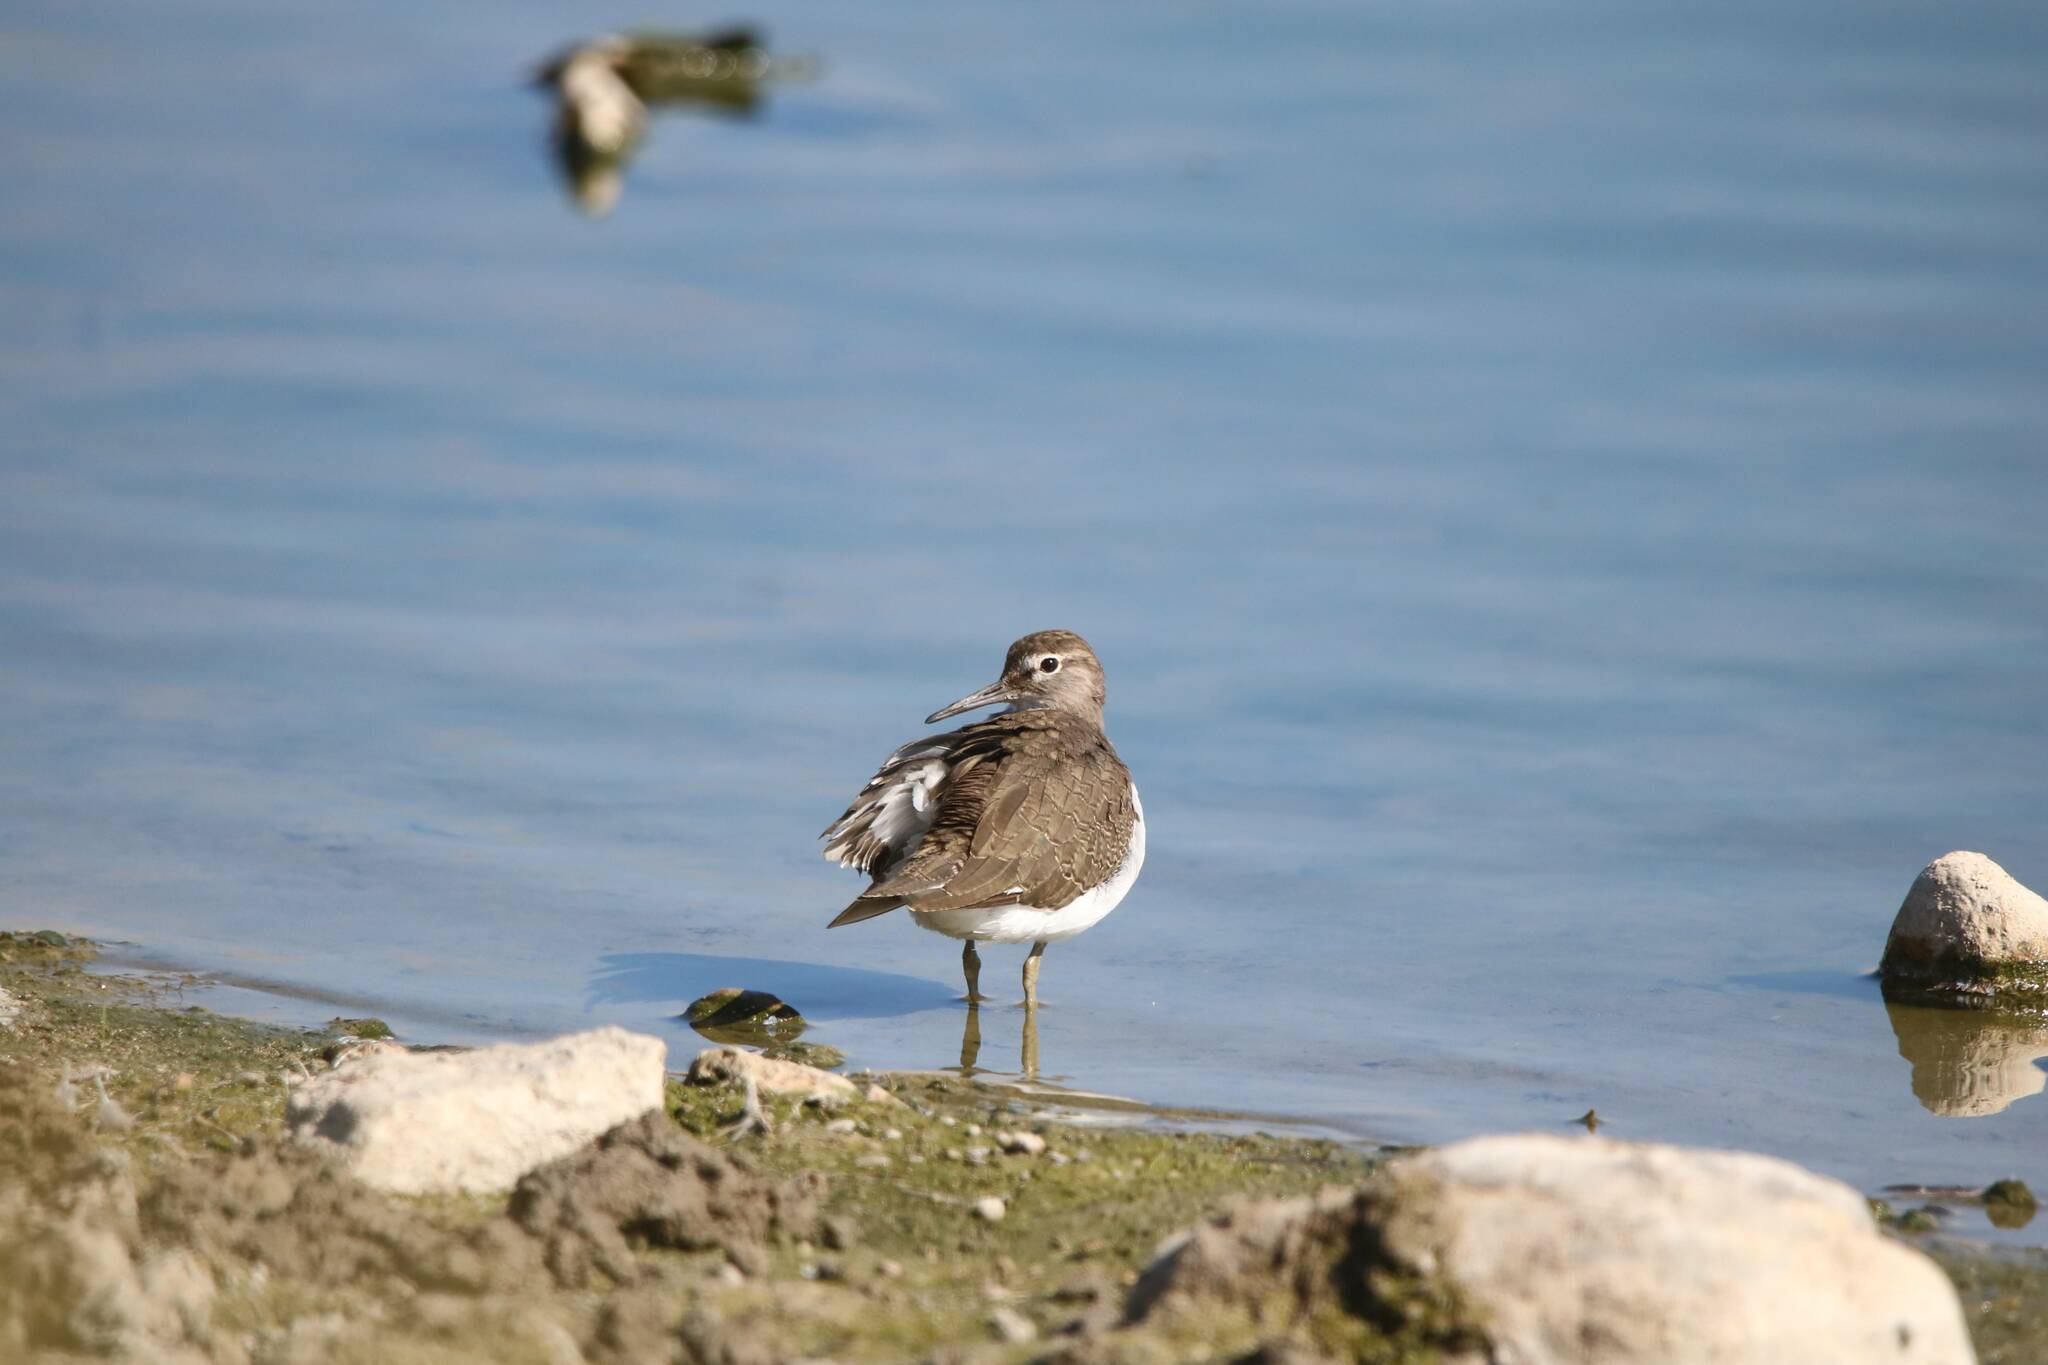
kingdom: Animalia
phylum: Chordata
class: Aves
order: Charadriiformes
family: Scolopacidae
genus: Actitis
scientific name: Actitis hypoleucos
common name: Common sandpiper
